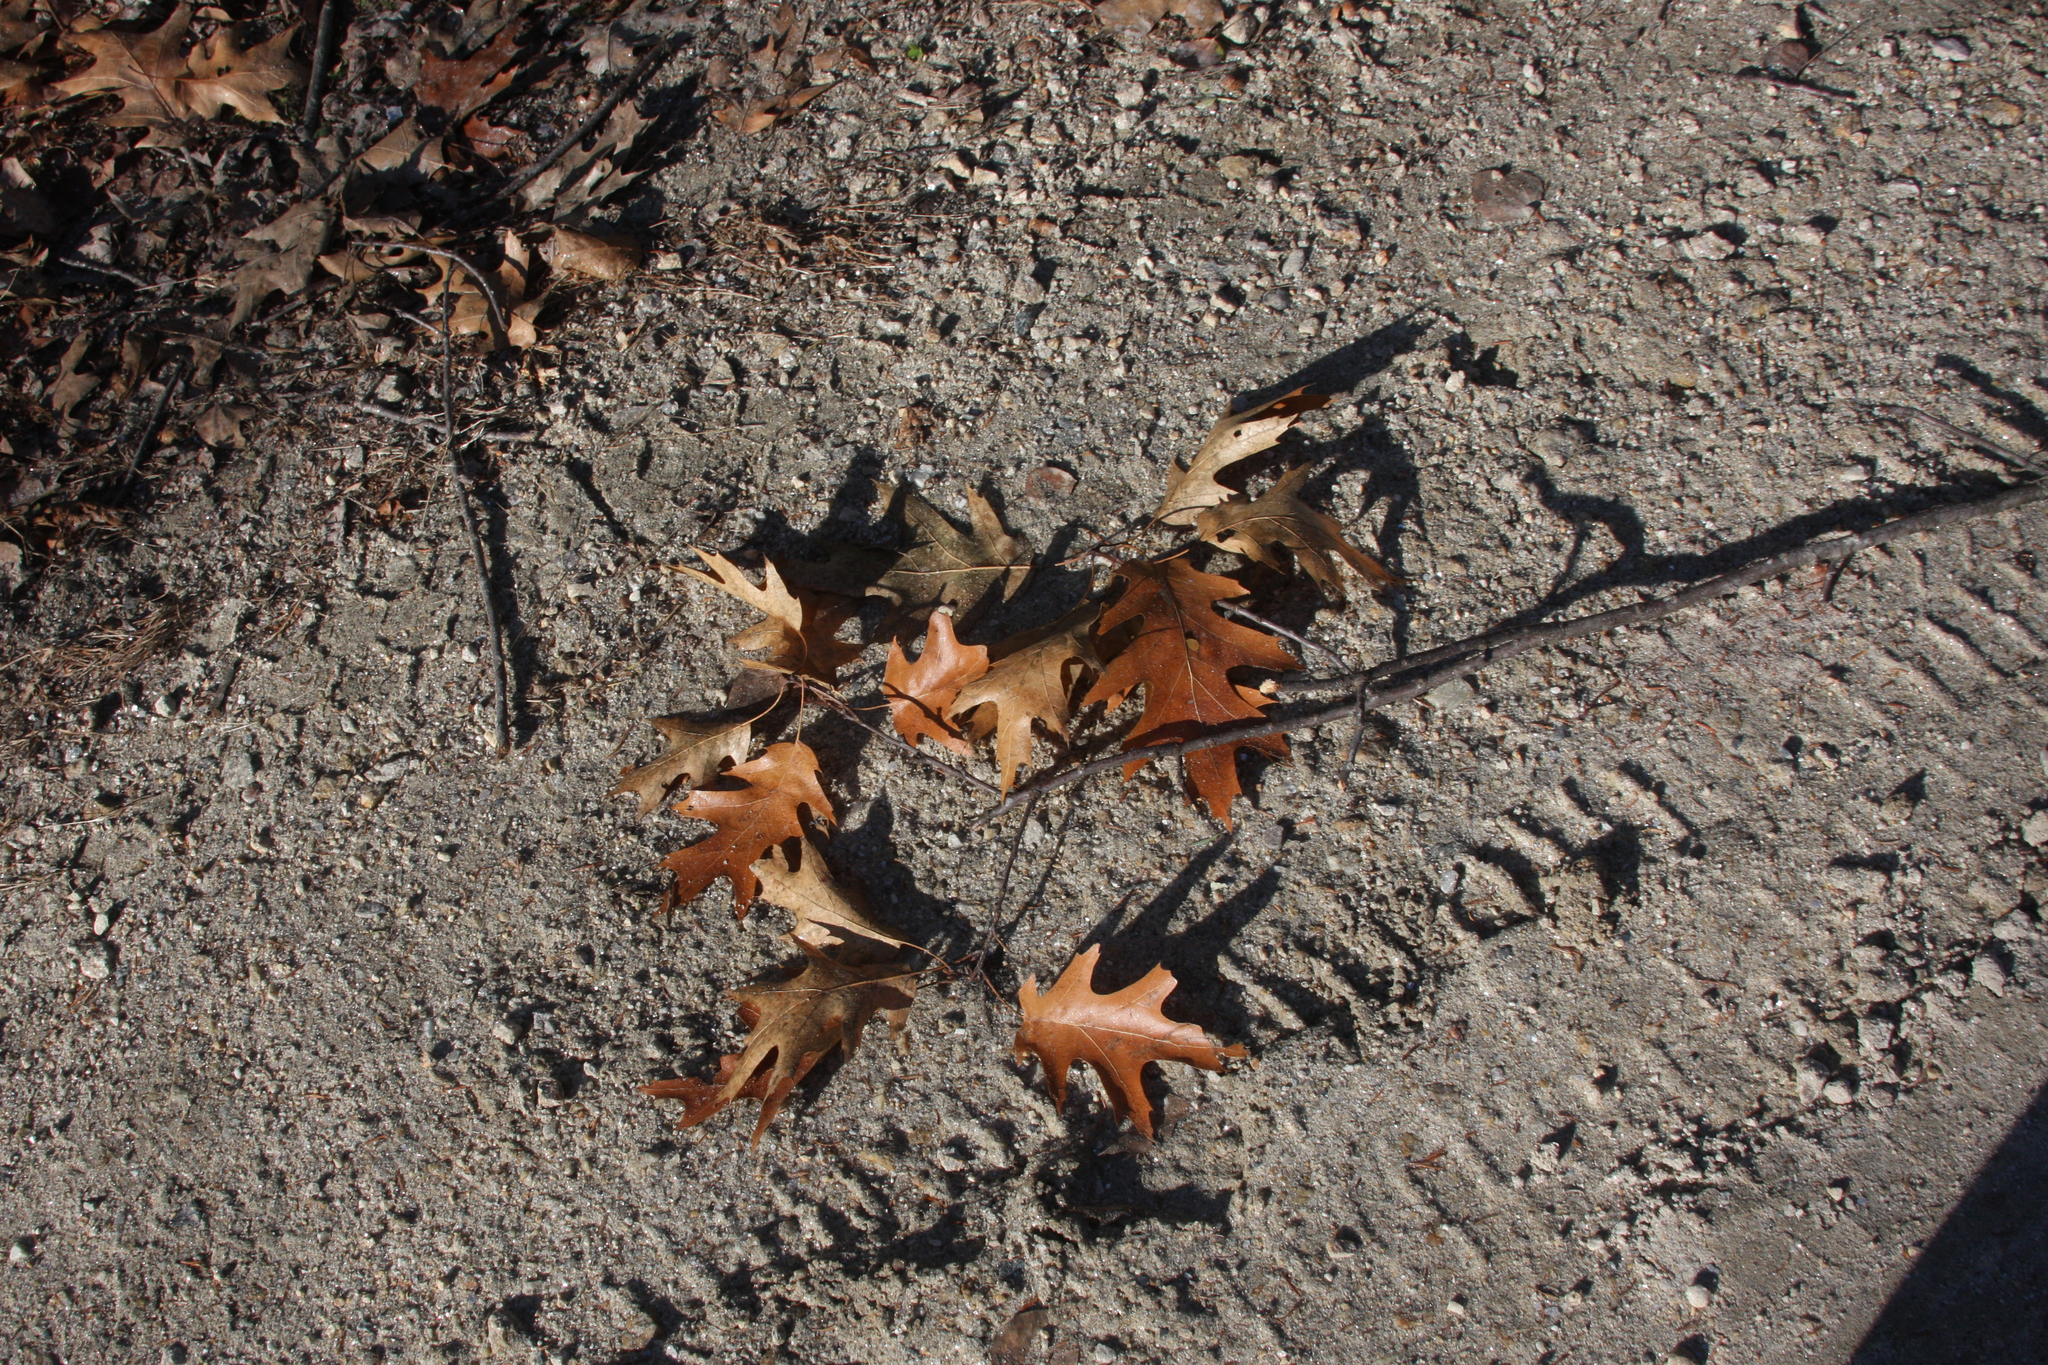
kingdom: Plantae
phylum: Tracheophyta
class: Magnoliopsida
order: Fagales
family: Fagaceae
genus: Quercus
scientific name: Quercus rubra
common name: Red oak
